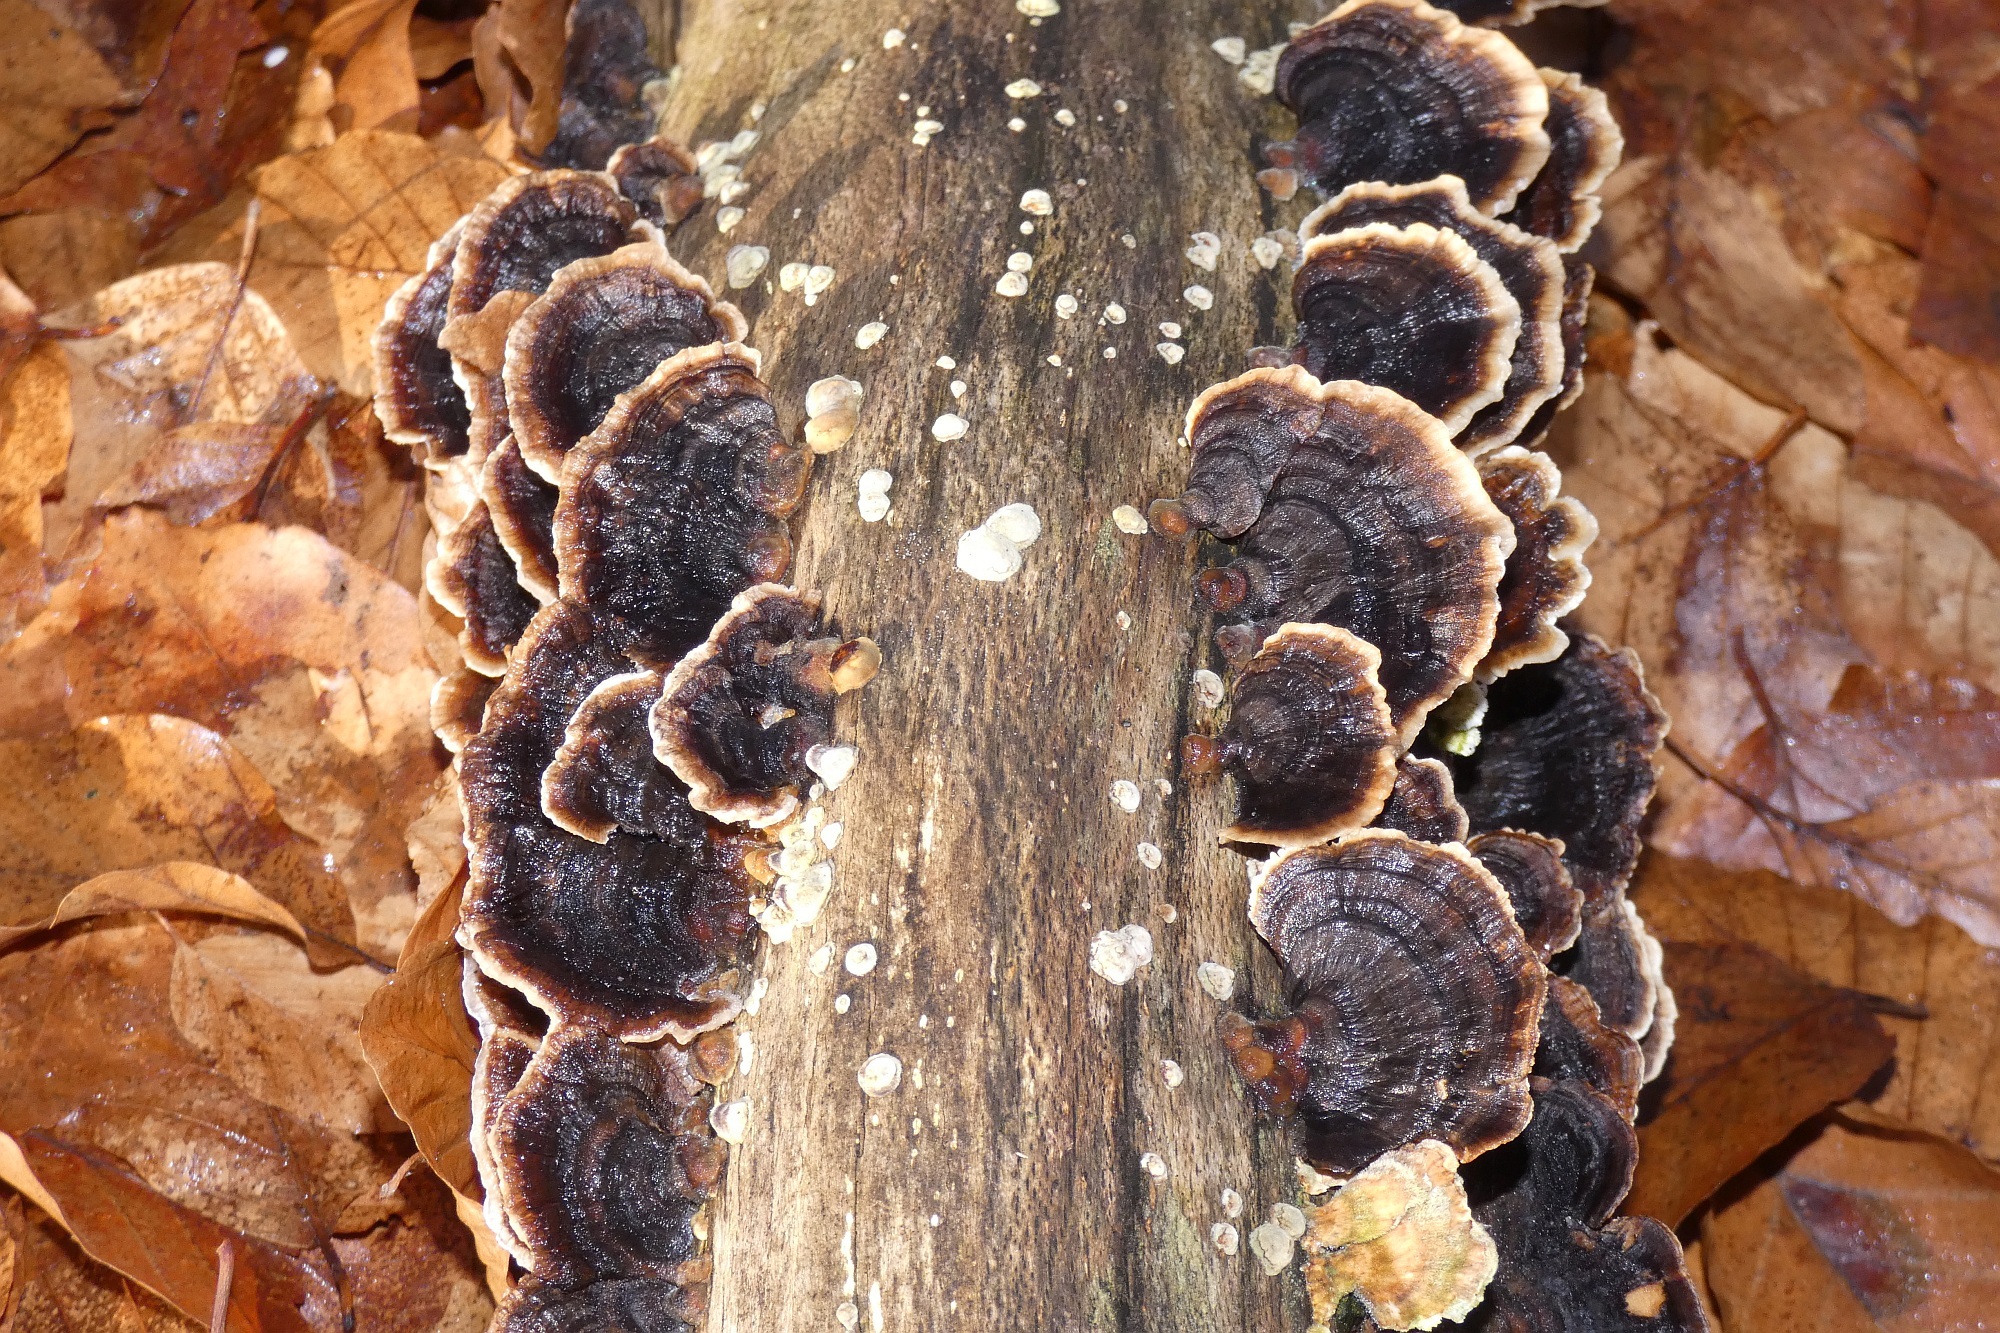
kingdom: Fungi
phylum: Basidiomycota
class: Agaricomycetes
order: Polyporales
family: Polyporaceae
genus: Trametes
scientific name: Trametes versicolor
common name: Turkeytail
